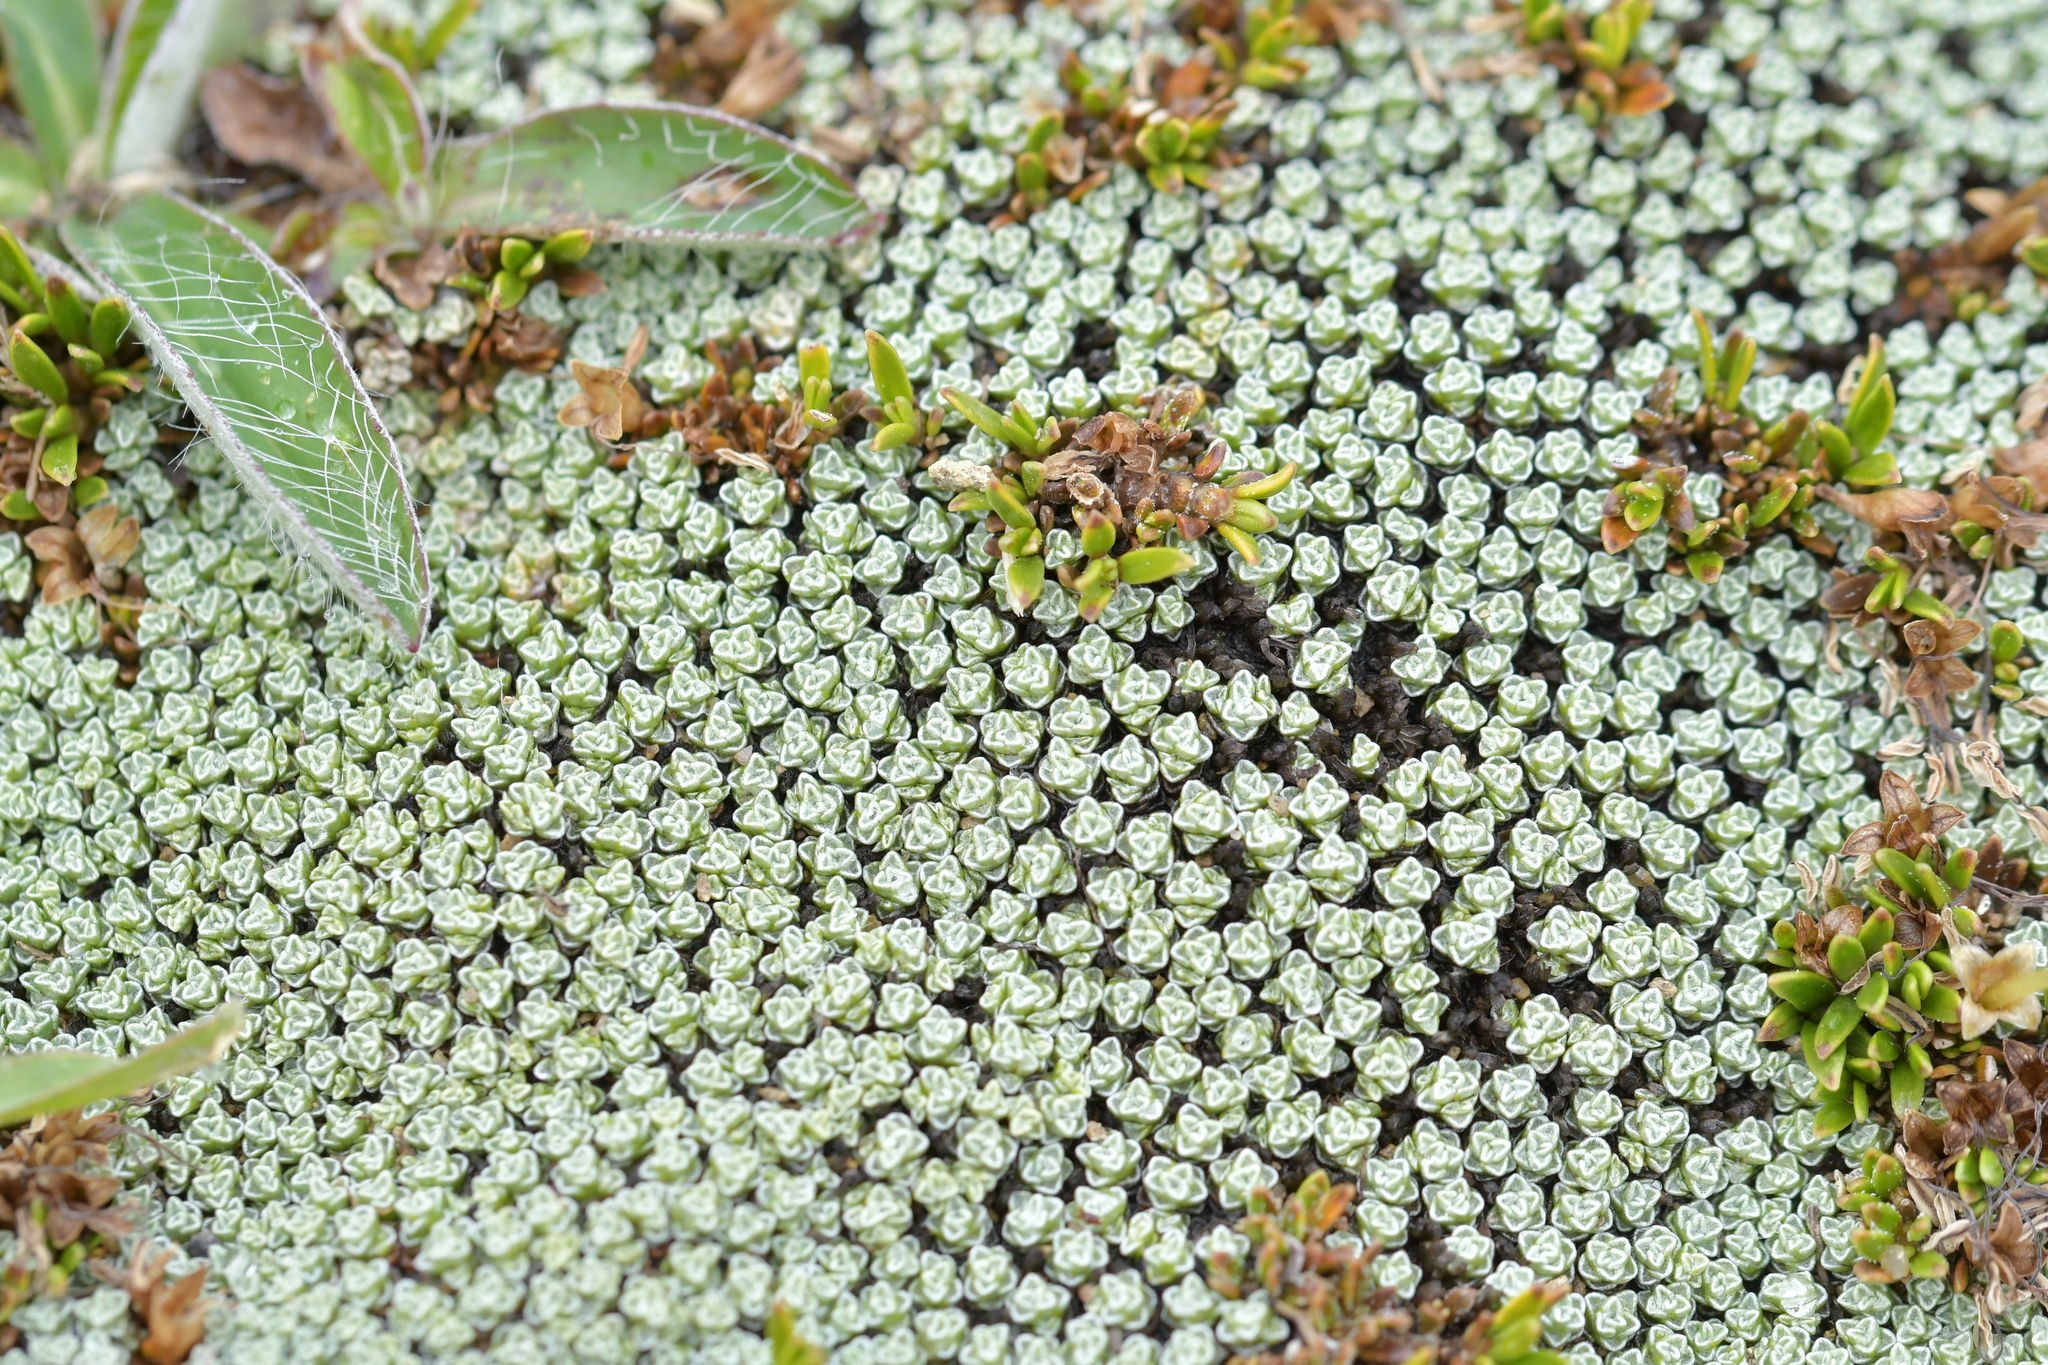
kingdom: Plantae
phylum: Tracheophyta
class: Magnoliopsida
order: Asterales
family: Asteraceae
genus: Raoulia
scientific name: Raoulia australis
